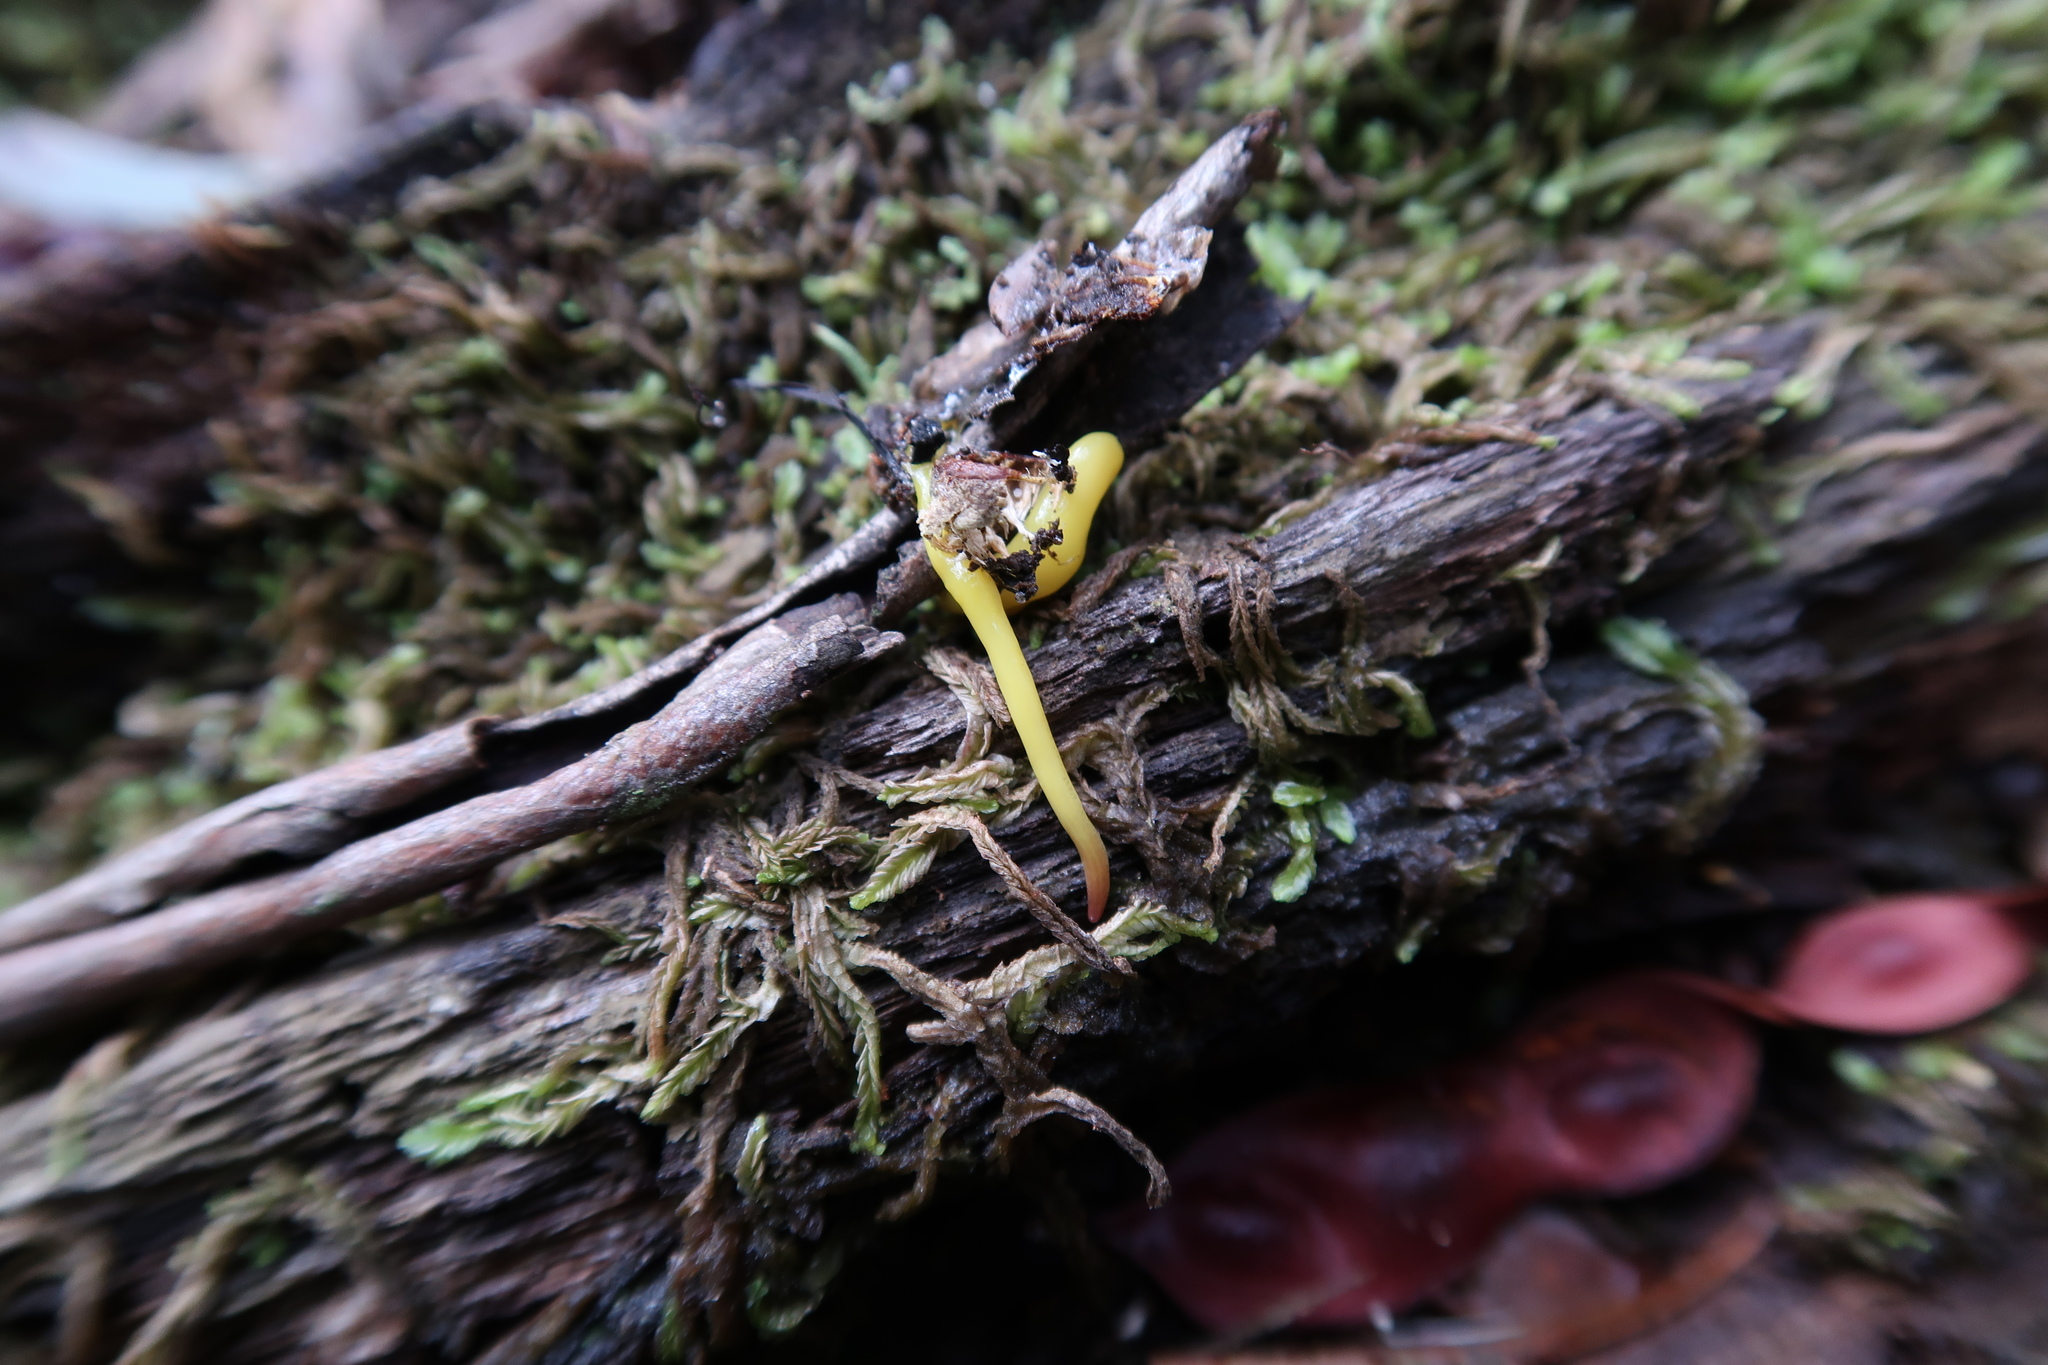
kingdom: Animalia
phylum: Platyhelminthes
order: Tricladida
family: Geoplanidae
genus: Fletchamia
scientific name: Fletchamia sugdeni
